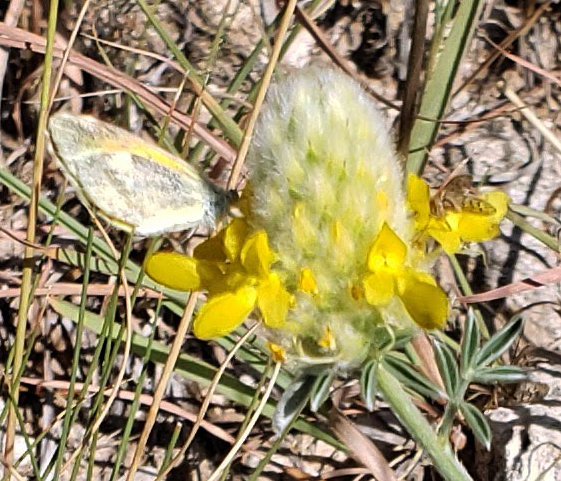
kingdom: Animalia
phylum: Arthropoda
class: Insecta
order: Lepidoptera
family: Pieridae
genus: Nathalis
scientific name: Nathalis iole
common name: Dainty sulphur
